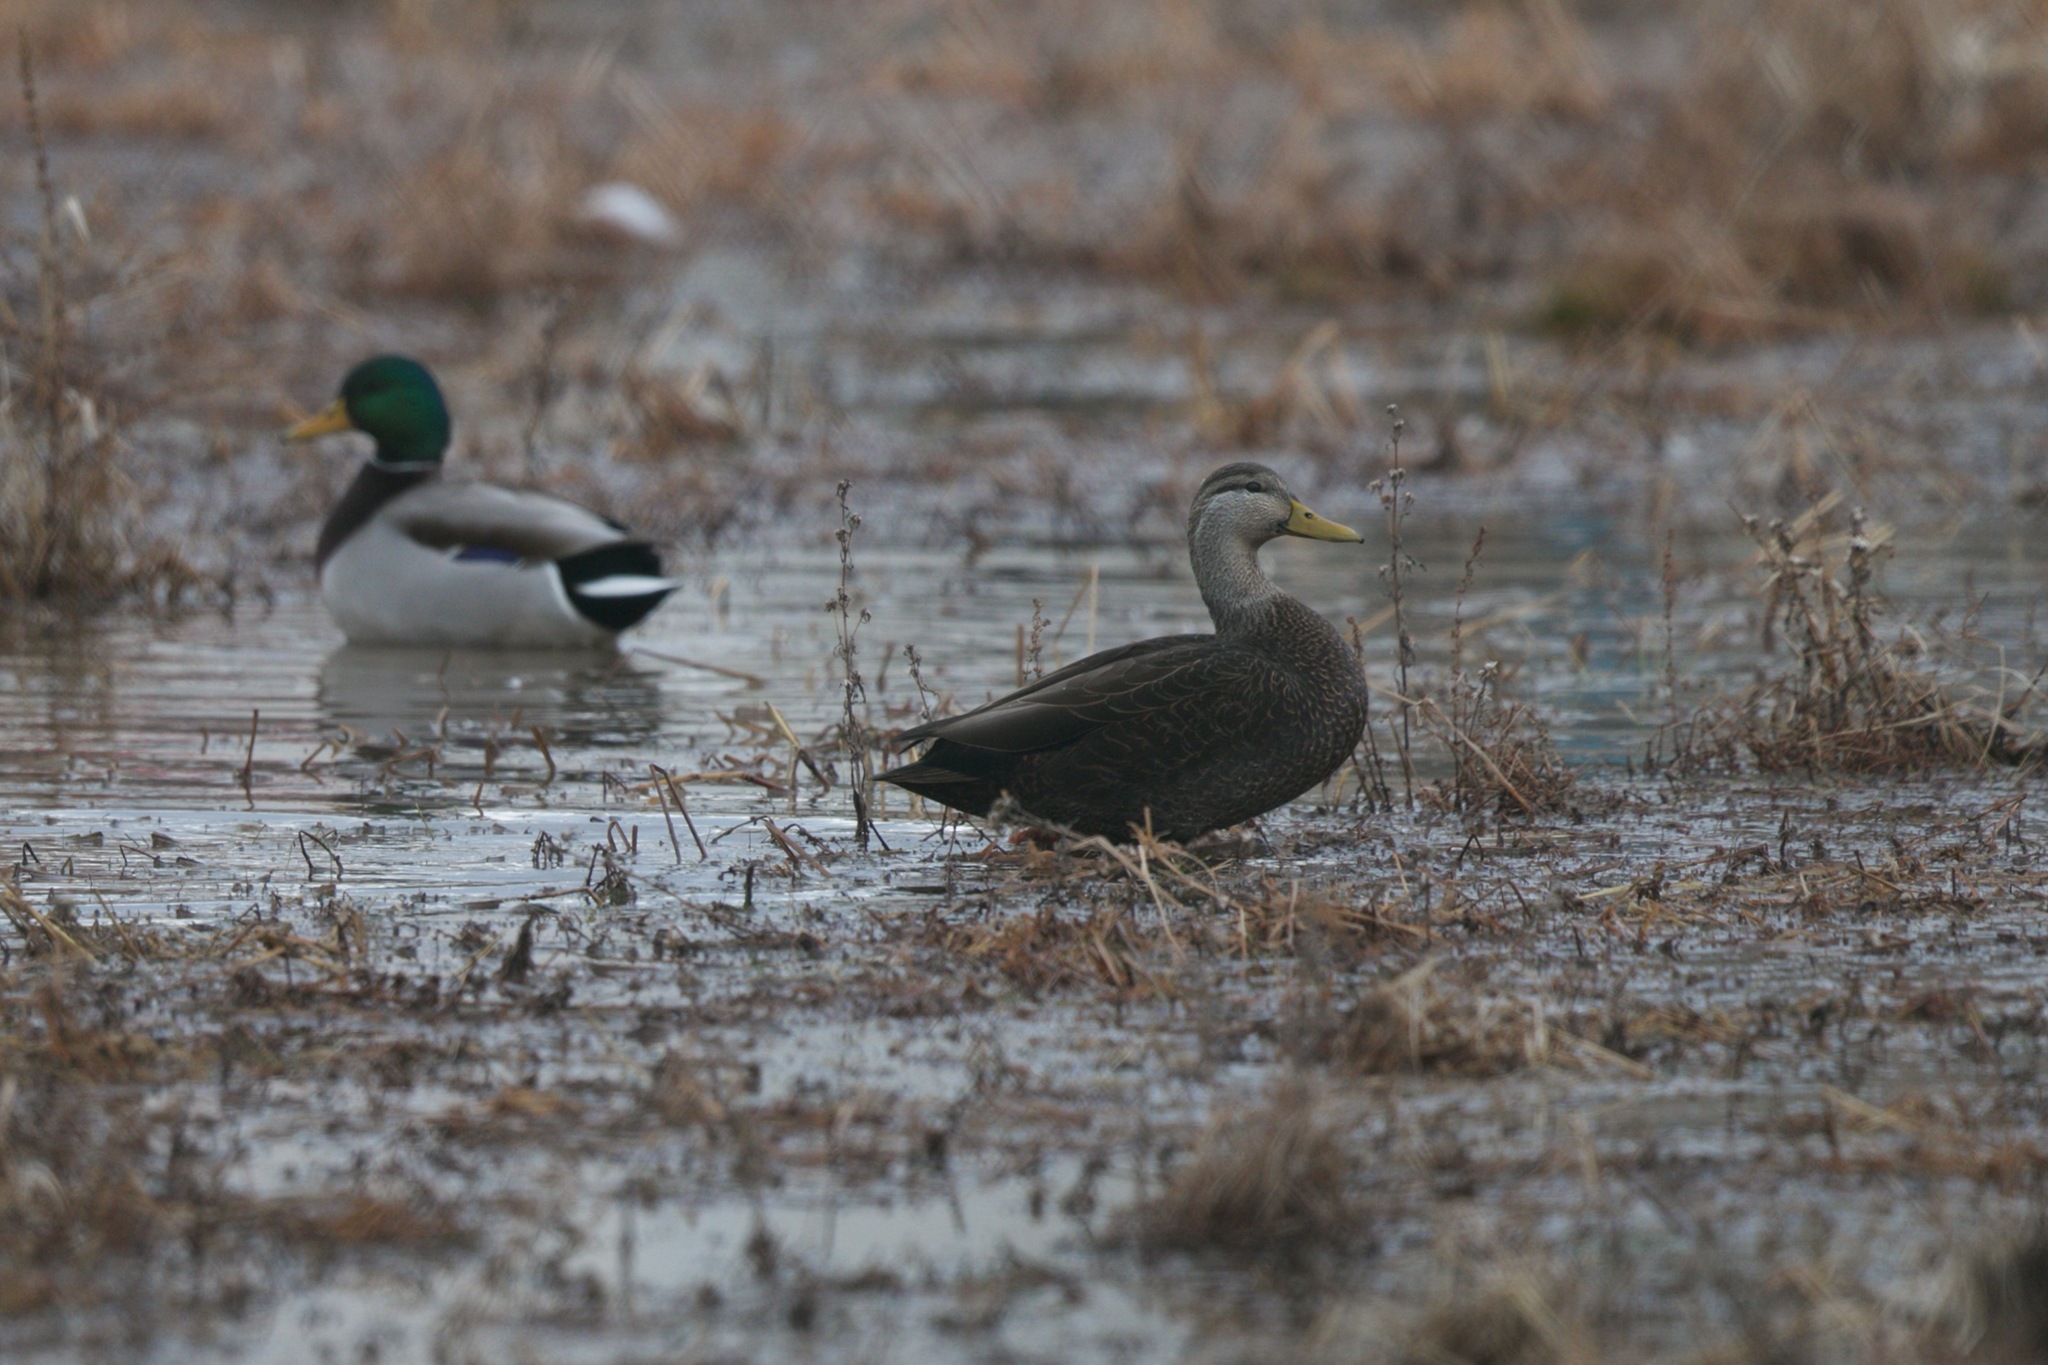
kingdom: Animalia
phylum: Chordata
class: Aves
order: Anseriformes
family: Anatidae
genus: Anas
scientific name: Anas rubripes
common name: American black duck
